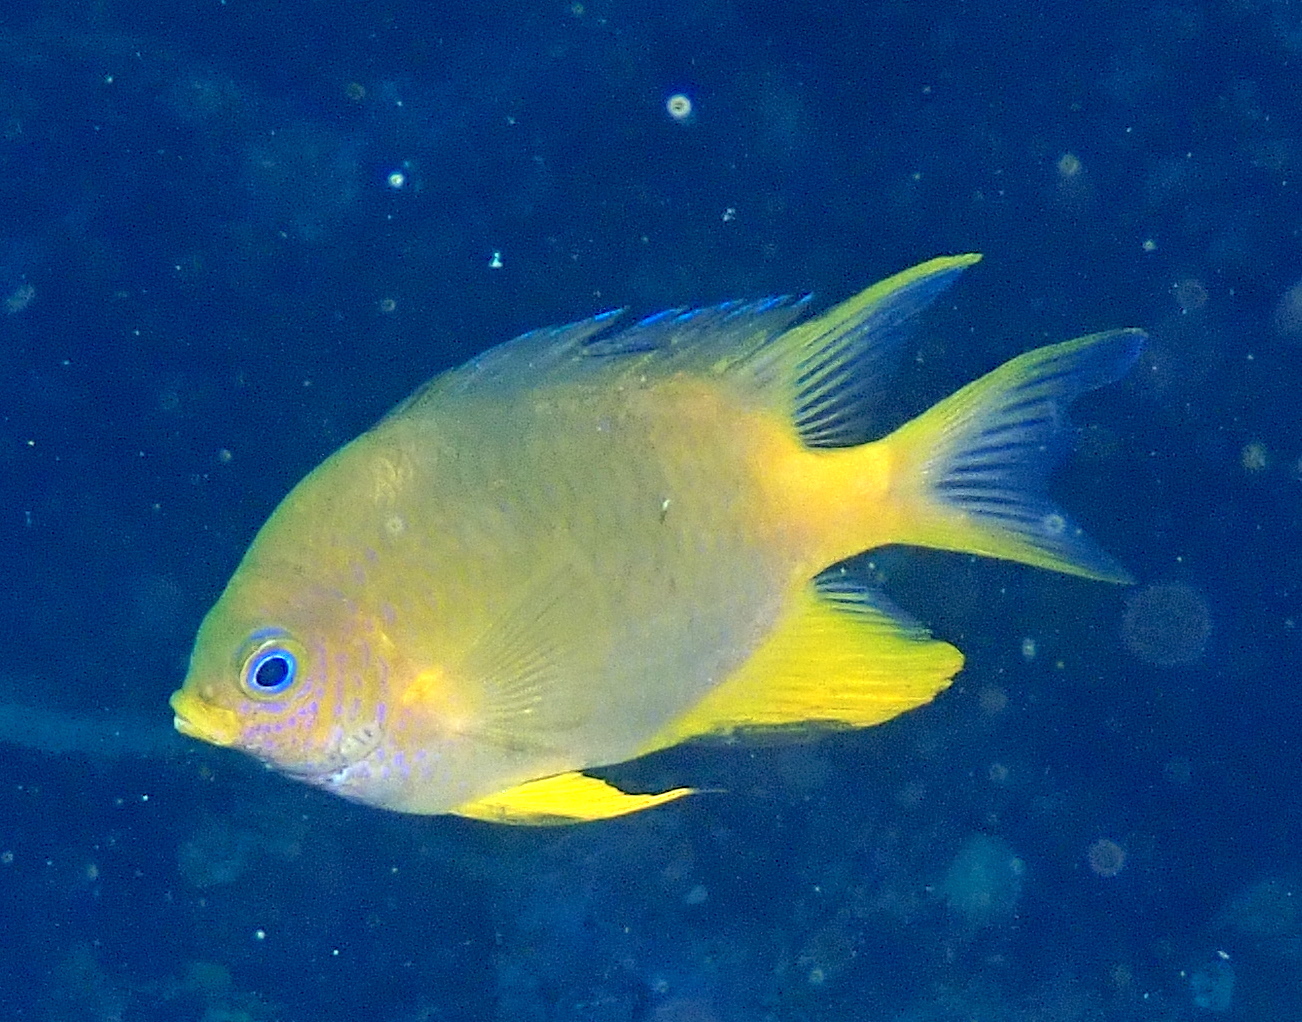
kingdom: Animalia
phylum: Chordata
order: Perciformes
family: Pomacentridae
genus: Amblyglyphidodon
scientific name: Amblyglyphidodon aureus
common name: Golden damsel
